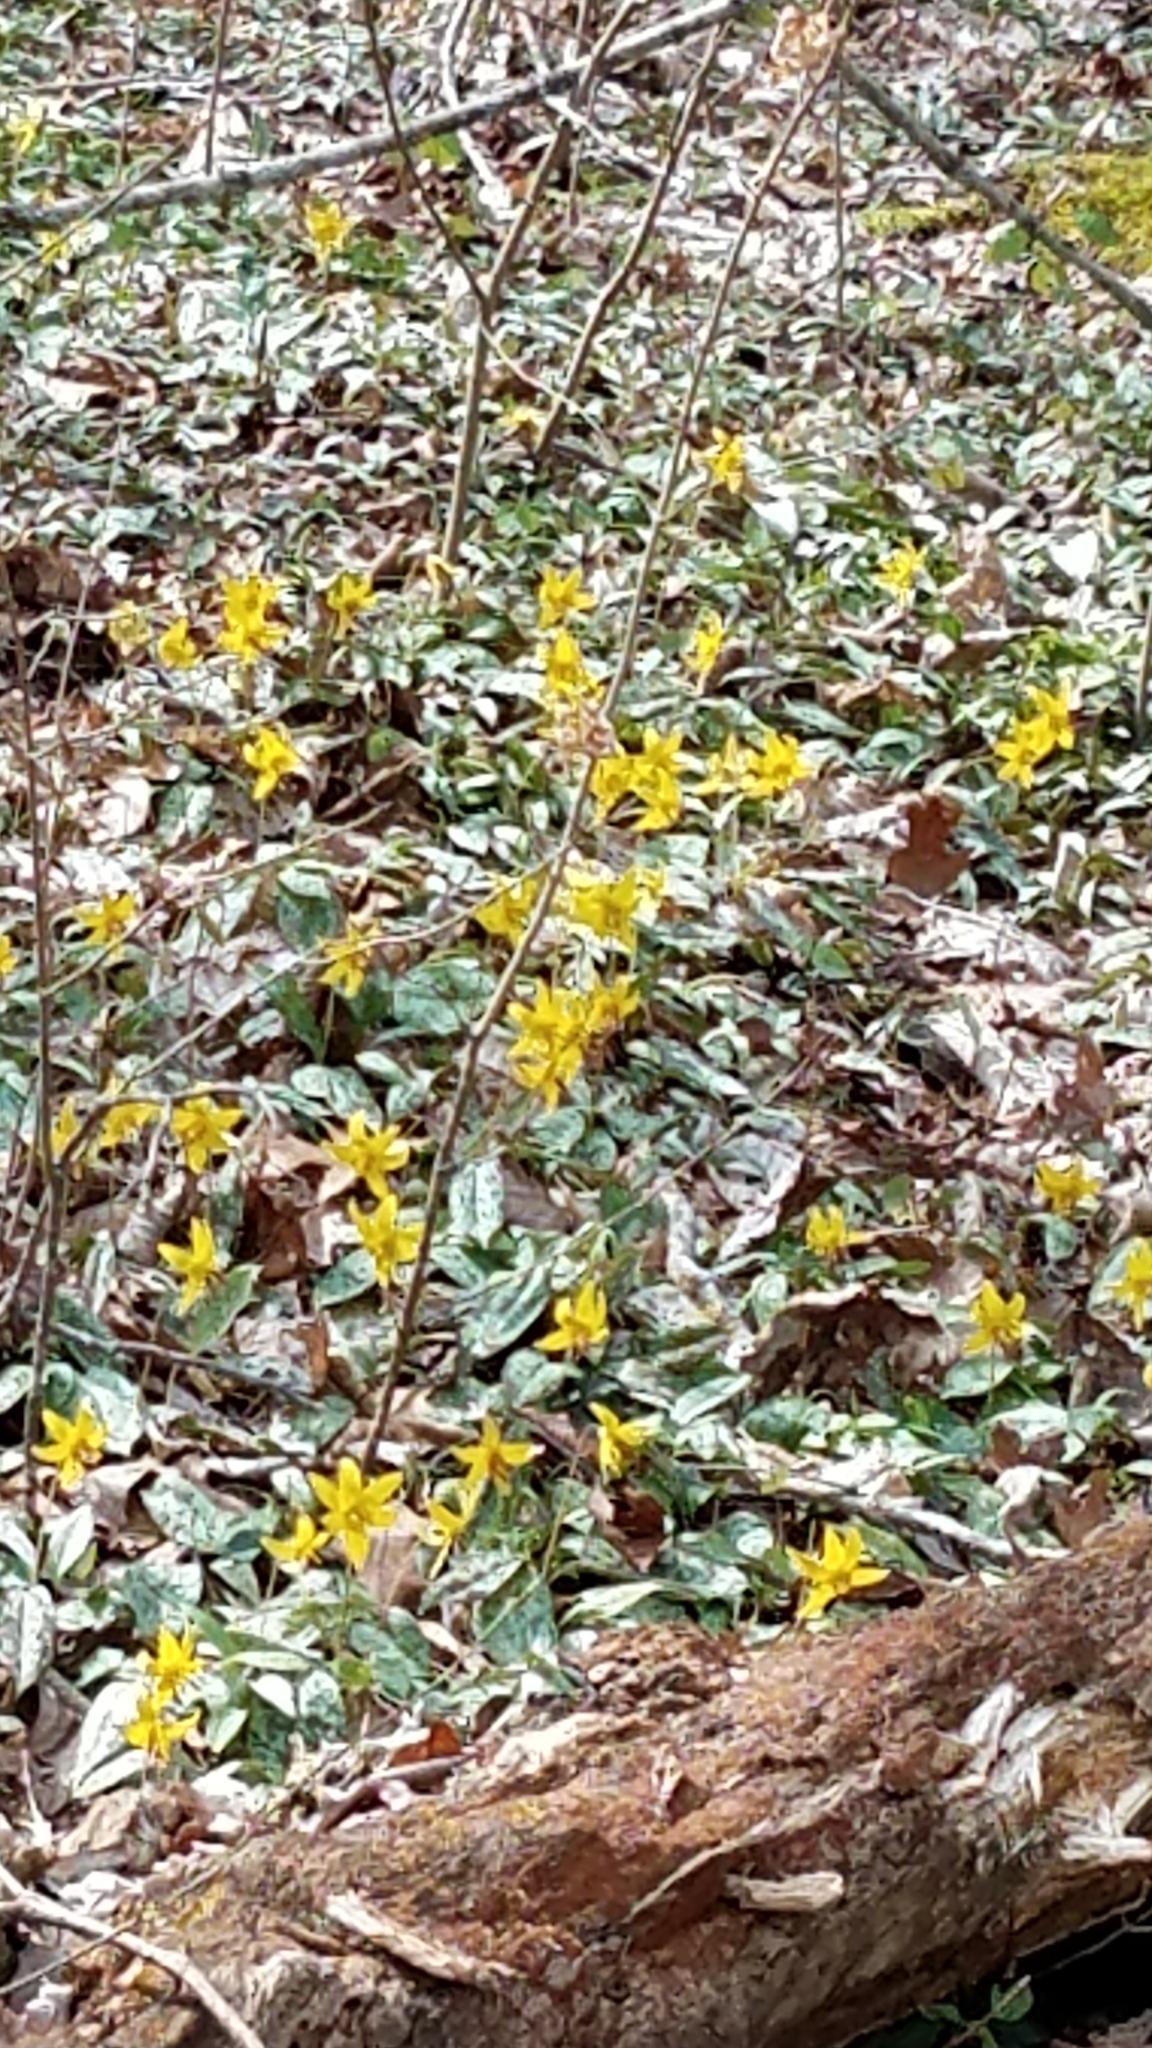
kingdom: Plantae
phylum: Tracheophyta
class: Liliopsida
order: Liliales
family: Liliaceae
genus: Erythronium
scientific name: Erythronium americanum
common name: Yellow adder's-tongue
